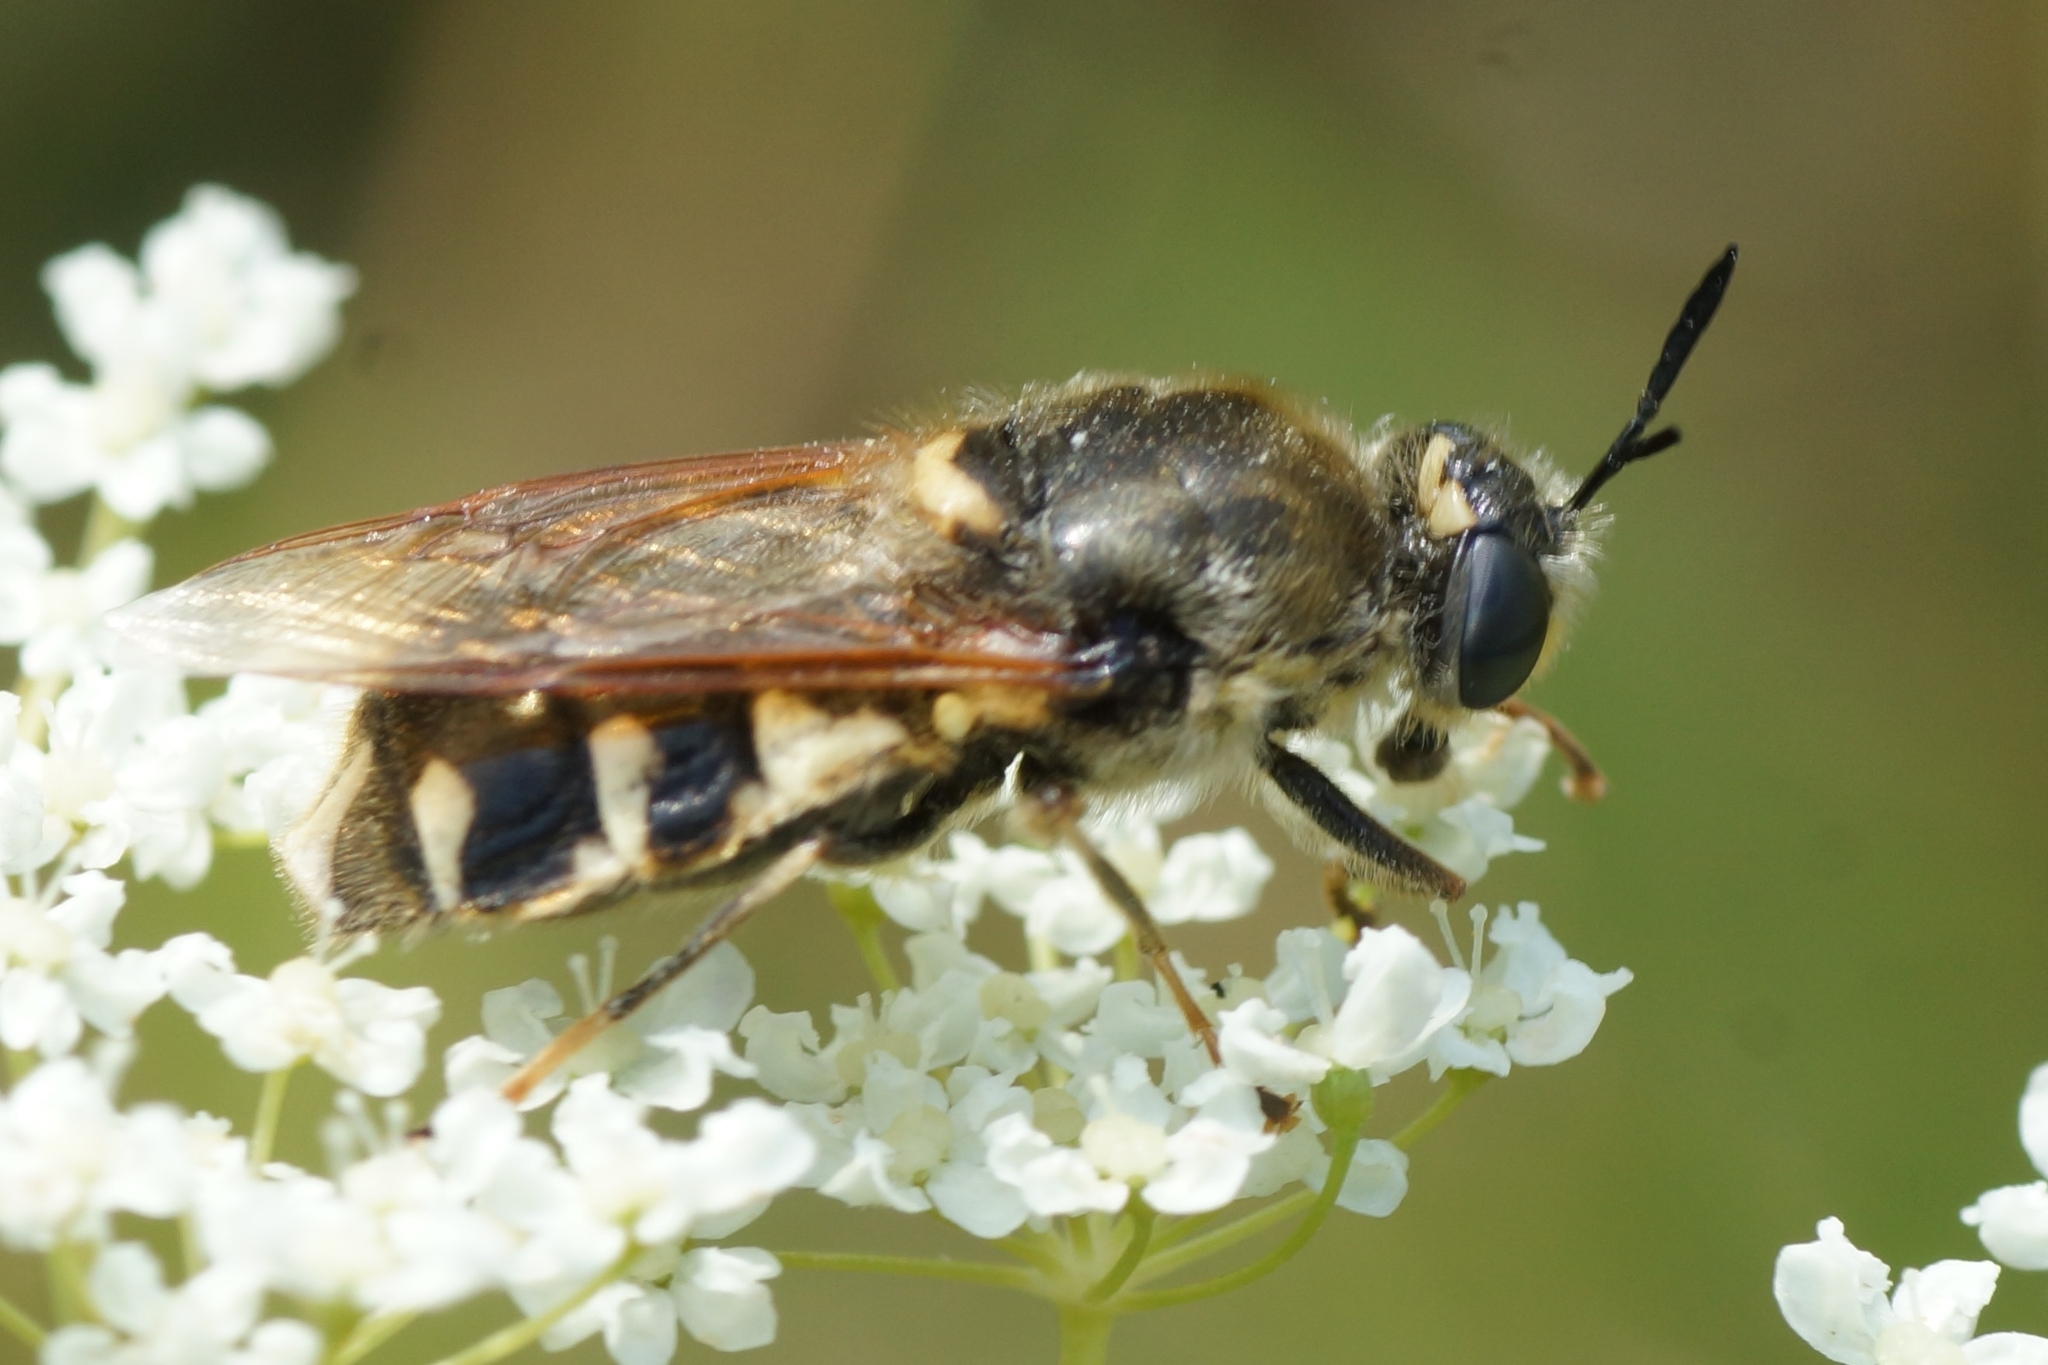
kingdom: Animalia
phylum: Arthropoda
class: Insecta
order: Diptera
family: Stratiomyidae
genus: Stratiomys
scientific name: Stratiomys singularior
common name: Flecked general
